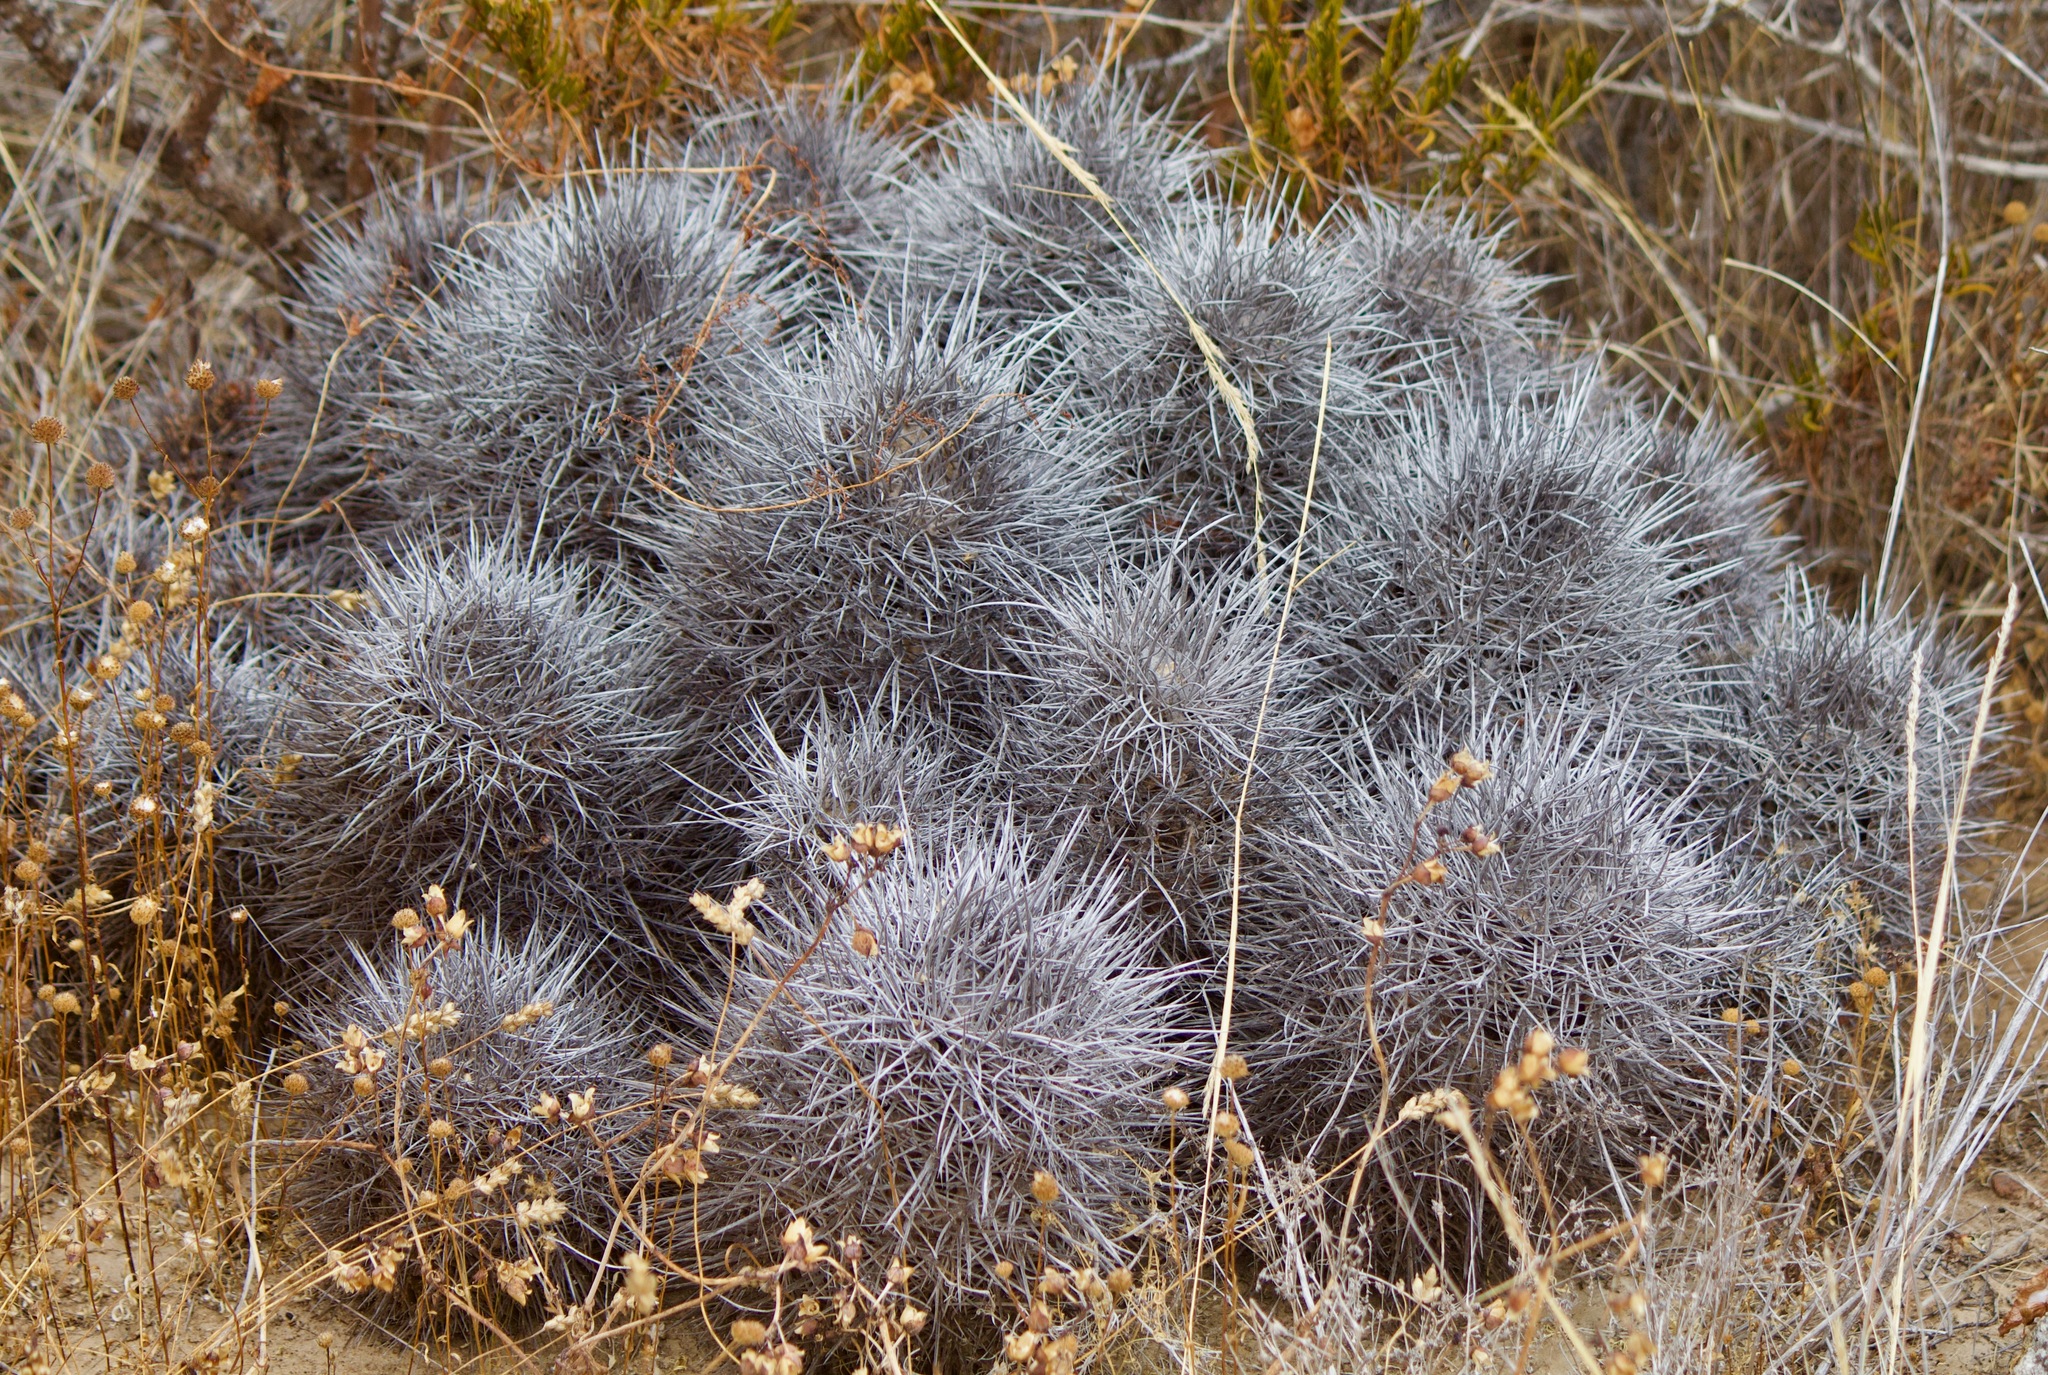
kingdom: Plantae
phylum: Tracheophyta
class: Magnoliopsida
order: Caryophyllales
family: Cactaceae
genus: Copiapoa
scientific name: Copiapoa coquimbana
